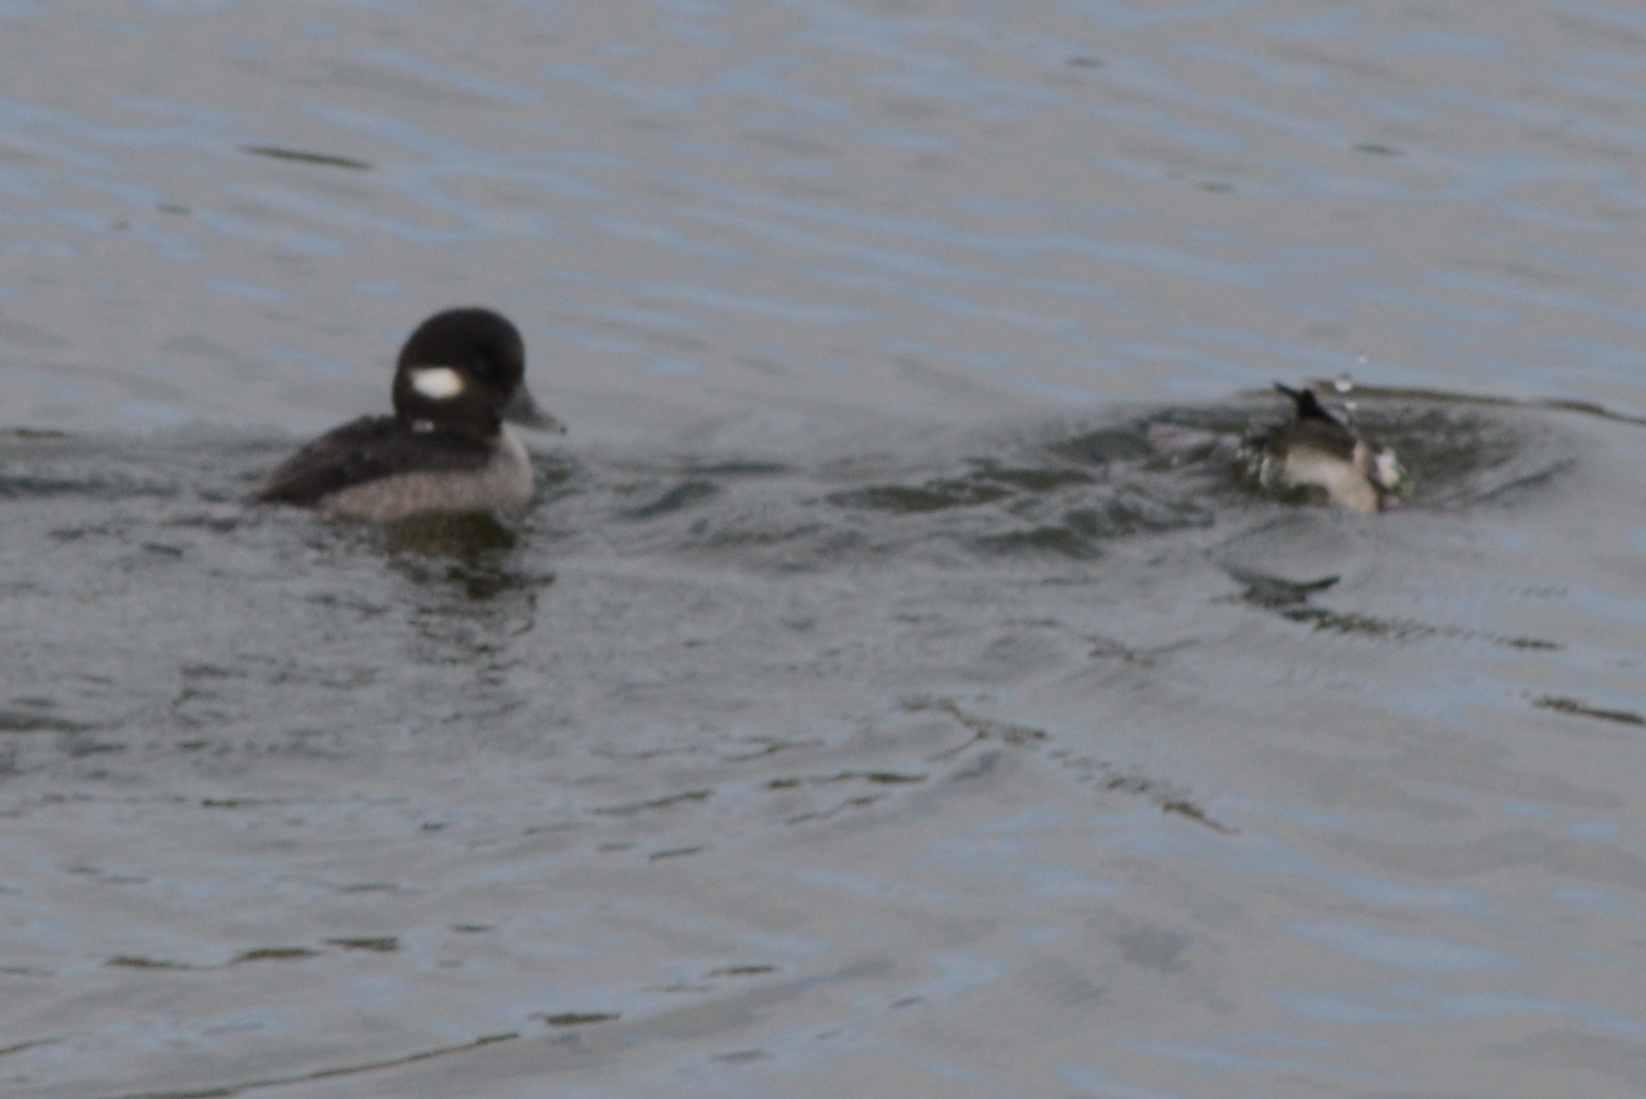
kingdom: Animalia
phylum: Chordata
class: Aves
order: Anseriformes
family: Anatidae
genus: Bucephala
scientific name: Bucephala albeola
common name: Bufflehead
